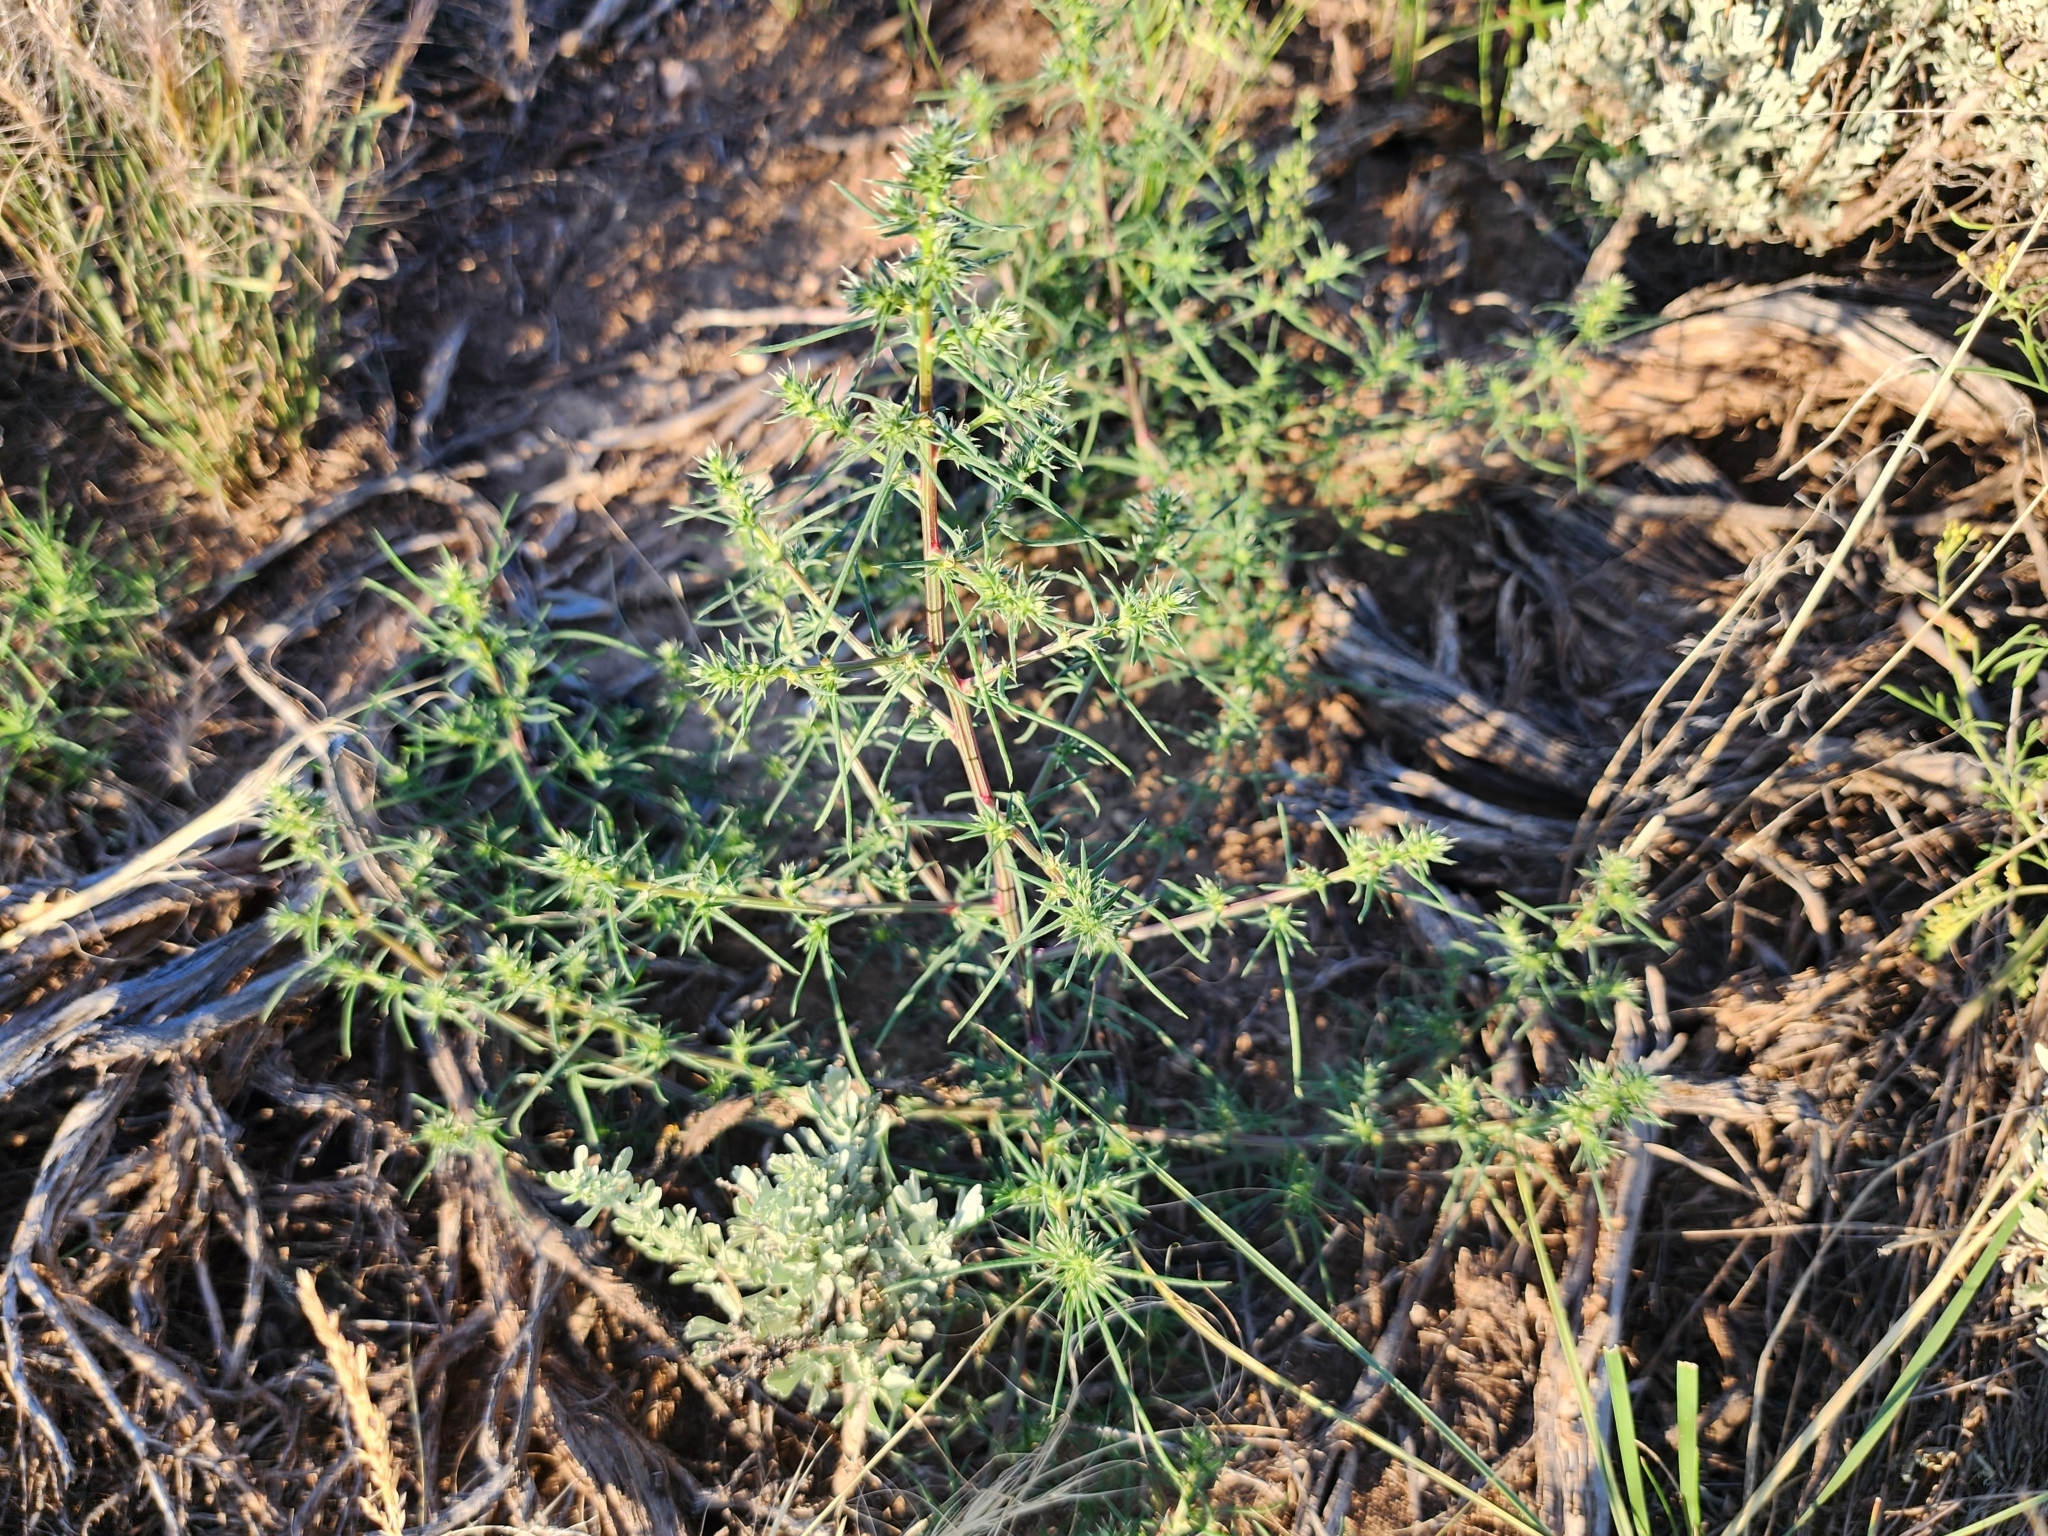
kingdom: Plantae
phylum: Tracheophyta
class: Magnoliopsida
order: Caryophyllales
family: Amaranthaceae
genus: Salsola
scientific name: Salsola tragus
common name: Prickly russian thistle
